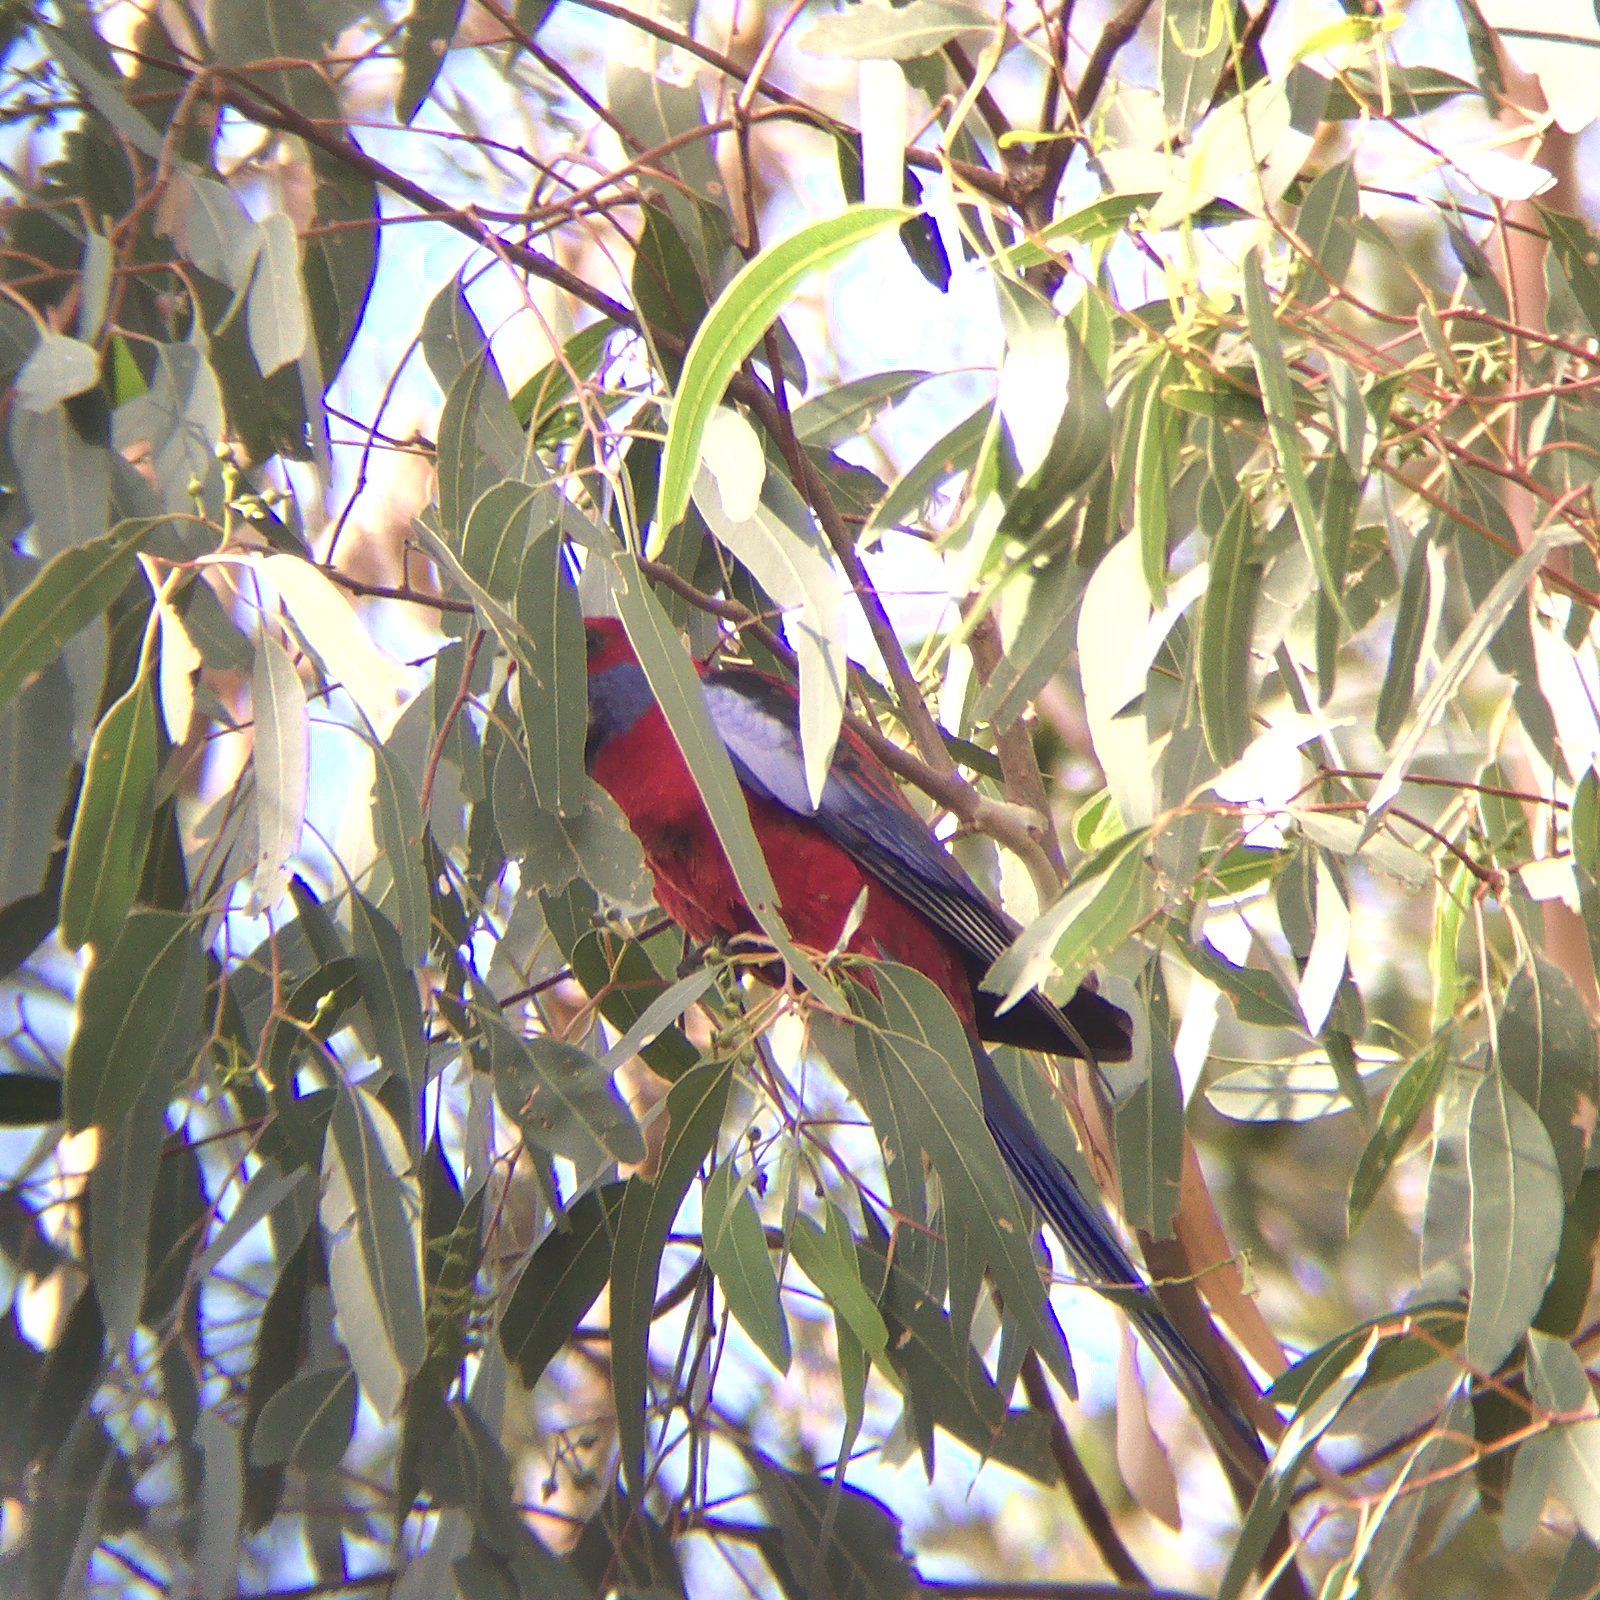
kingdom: Animalia
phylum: Chordata
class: Aves
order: Psittaciformes
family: Psittacidae
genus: Platycercus
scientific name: Platycercus elegans
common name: Crimson rosella
